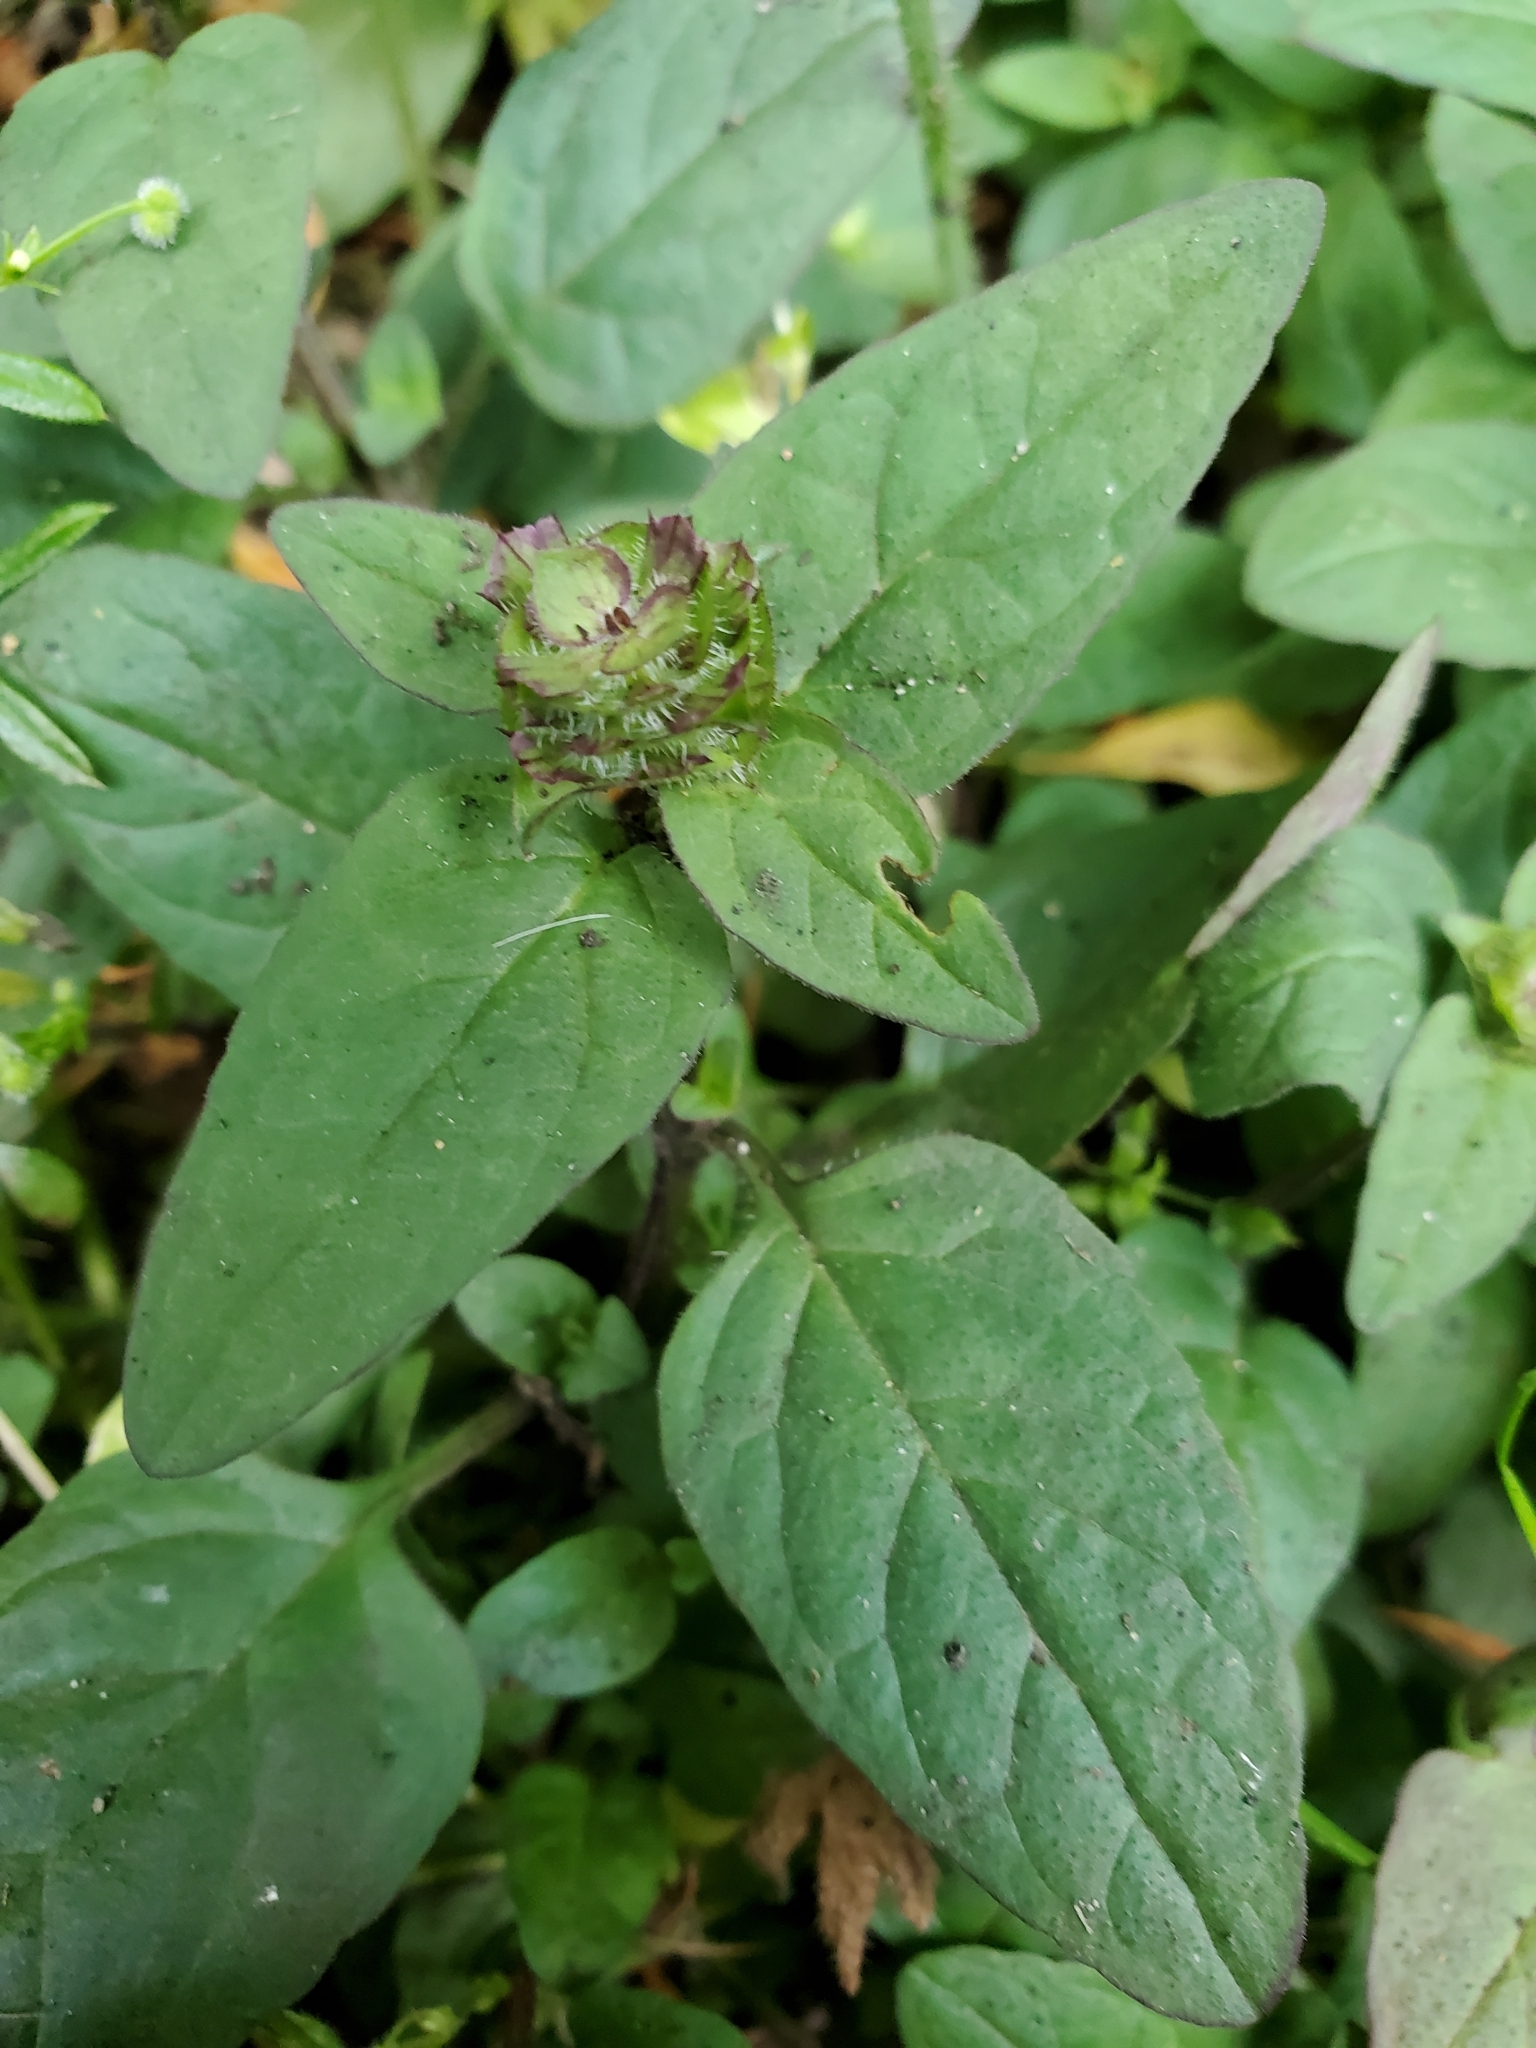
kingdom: Plantae
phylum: Tracheophyta
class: Magnoliopsida
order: Lamiales
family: Lamiaceae
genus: Prunella
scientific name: Prunella vulgaris
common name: Heal-all
